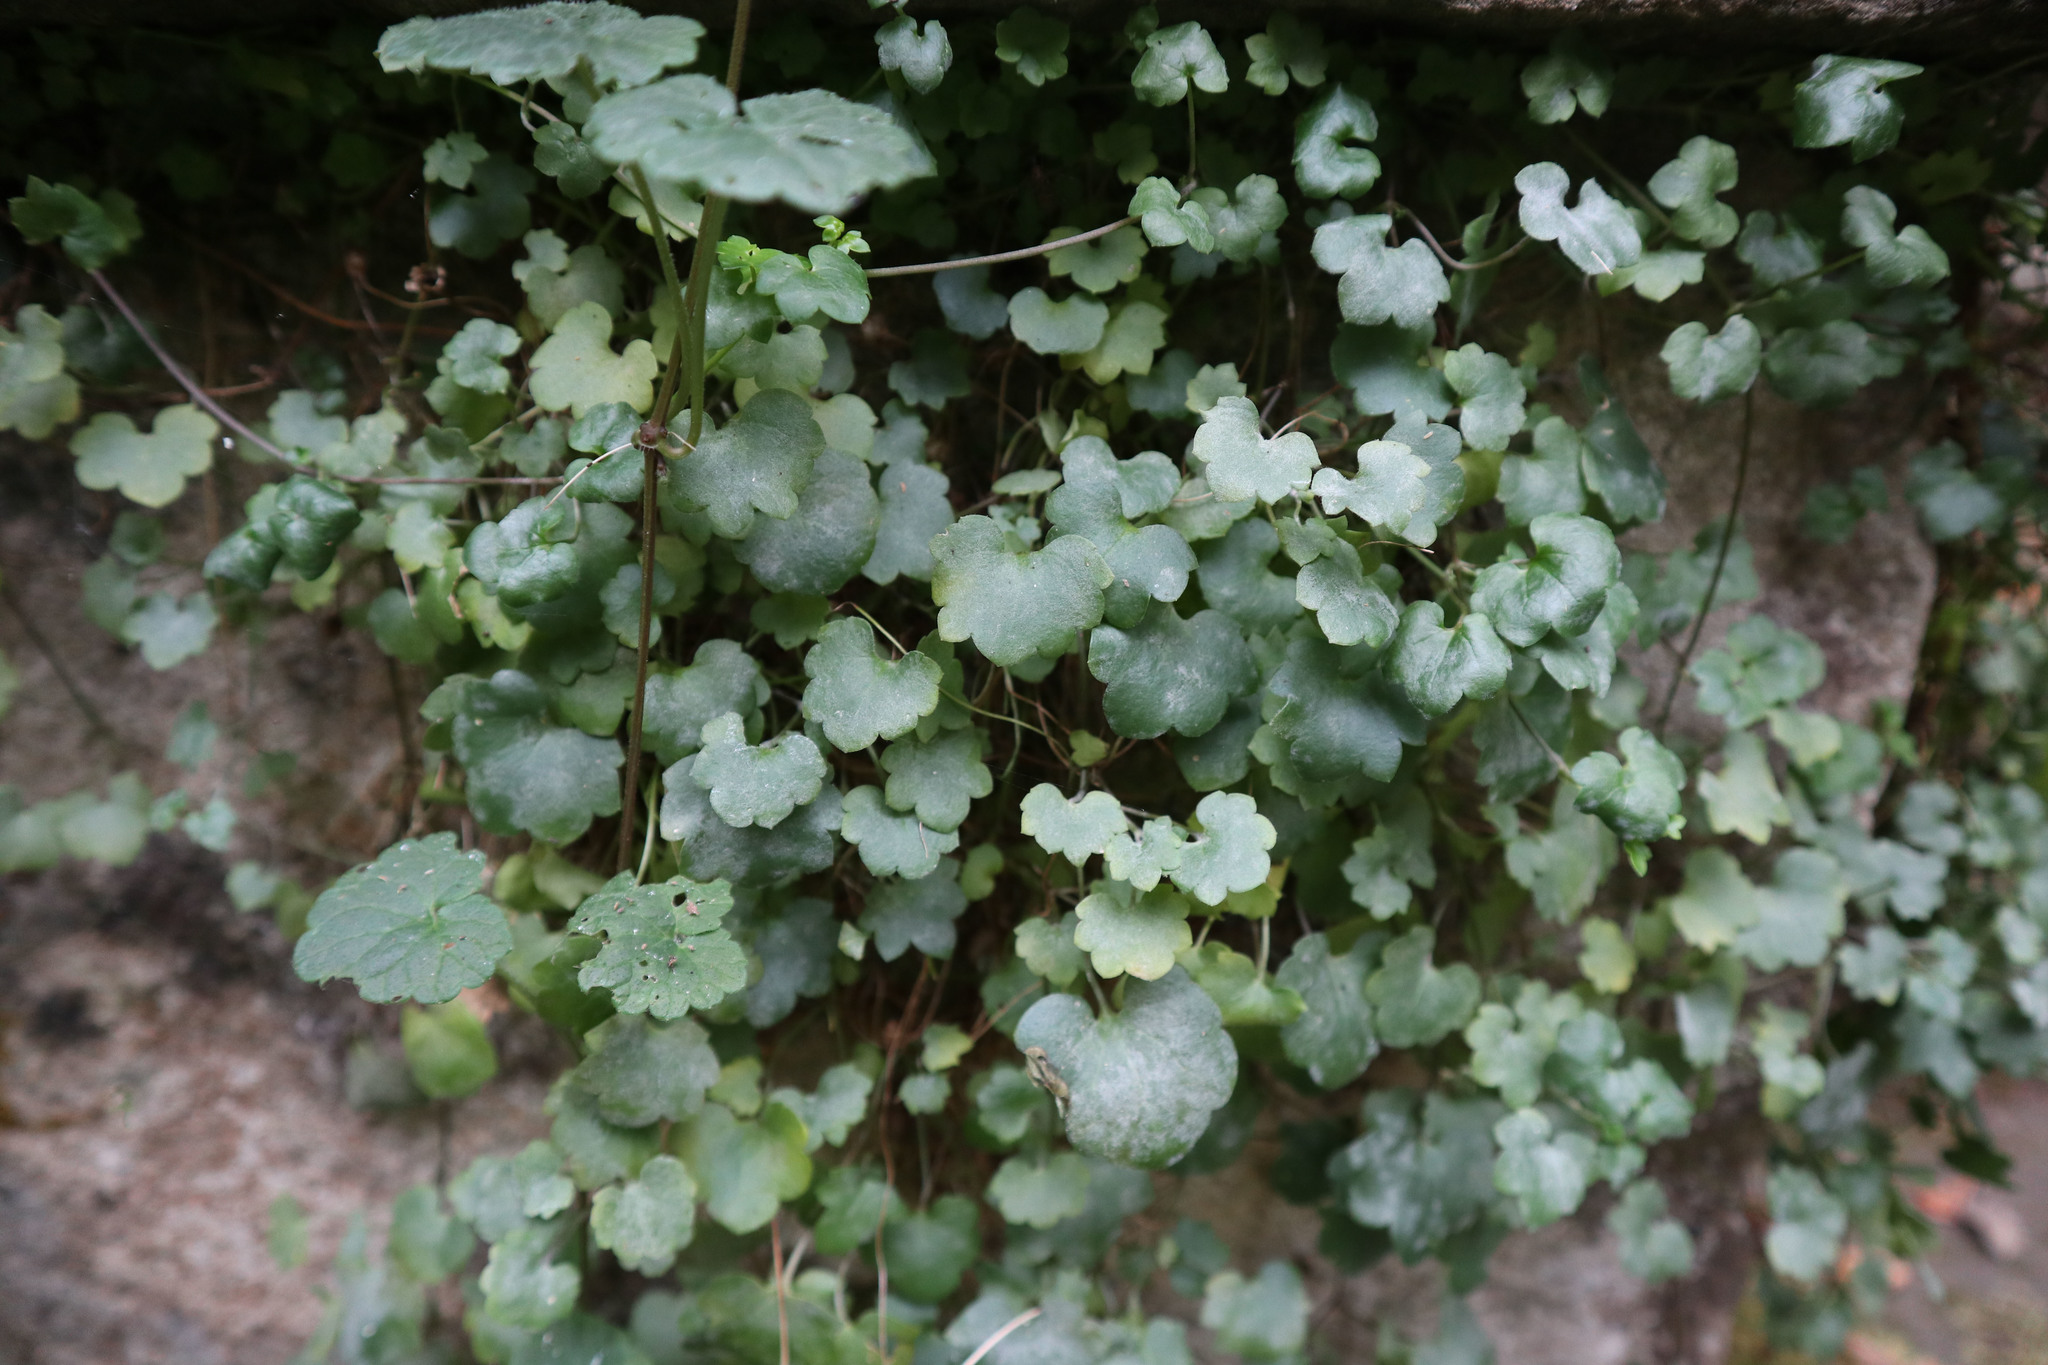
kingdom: Plantae
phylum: Tracheophyta
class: Magnoliopsida
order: Lamiales
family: Plantaginaceae
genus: Cymbalaria
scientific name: Cymbalaria muralis
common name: Ivy-leaved toadflax
